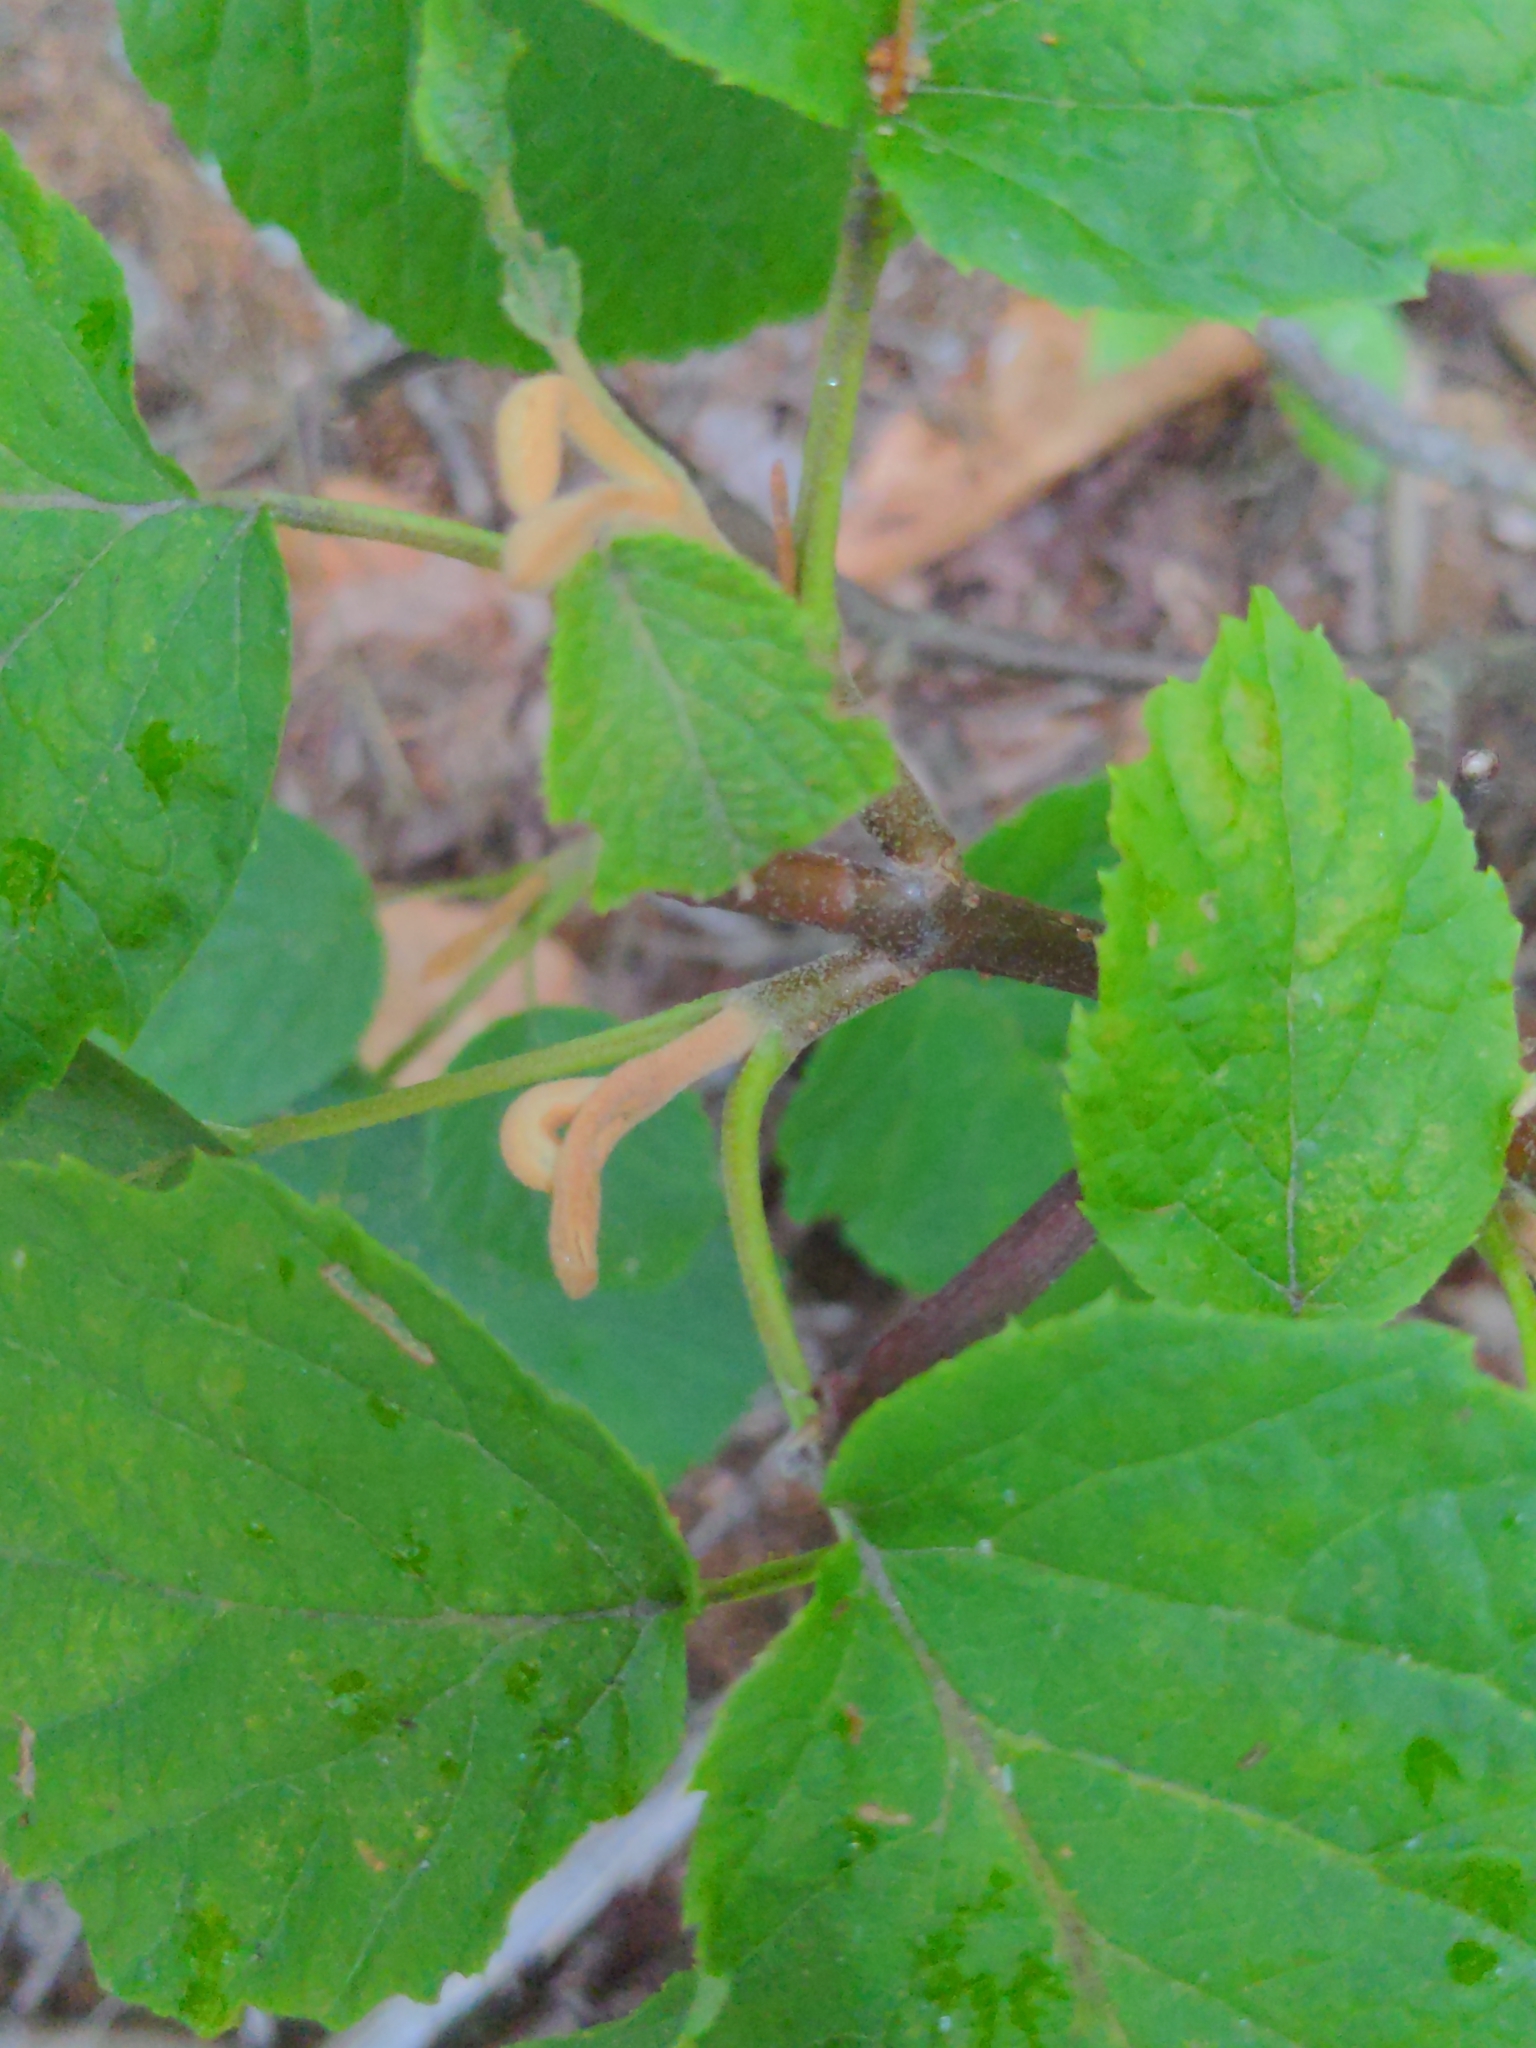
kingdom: Plantae
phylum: Tracheophyta
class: Magnoliopsida
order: Dipsacales
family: Viburnaceae
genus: Viburnum
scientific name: Viburnum lantanoides
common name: Hobblebush
